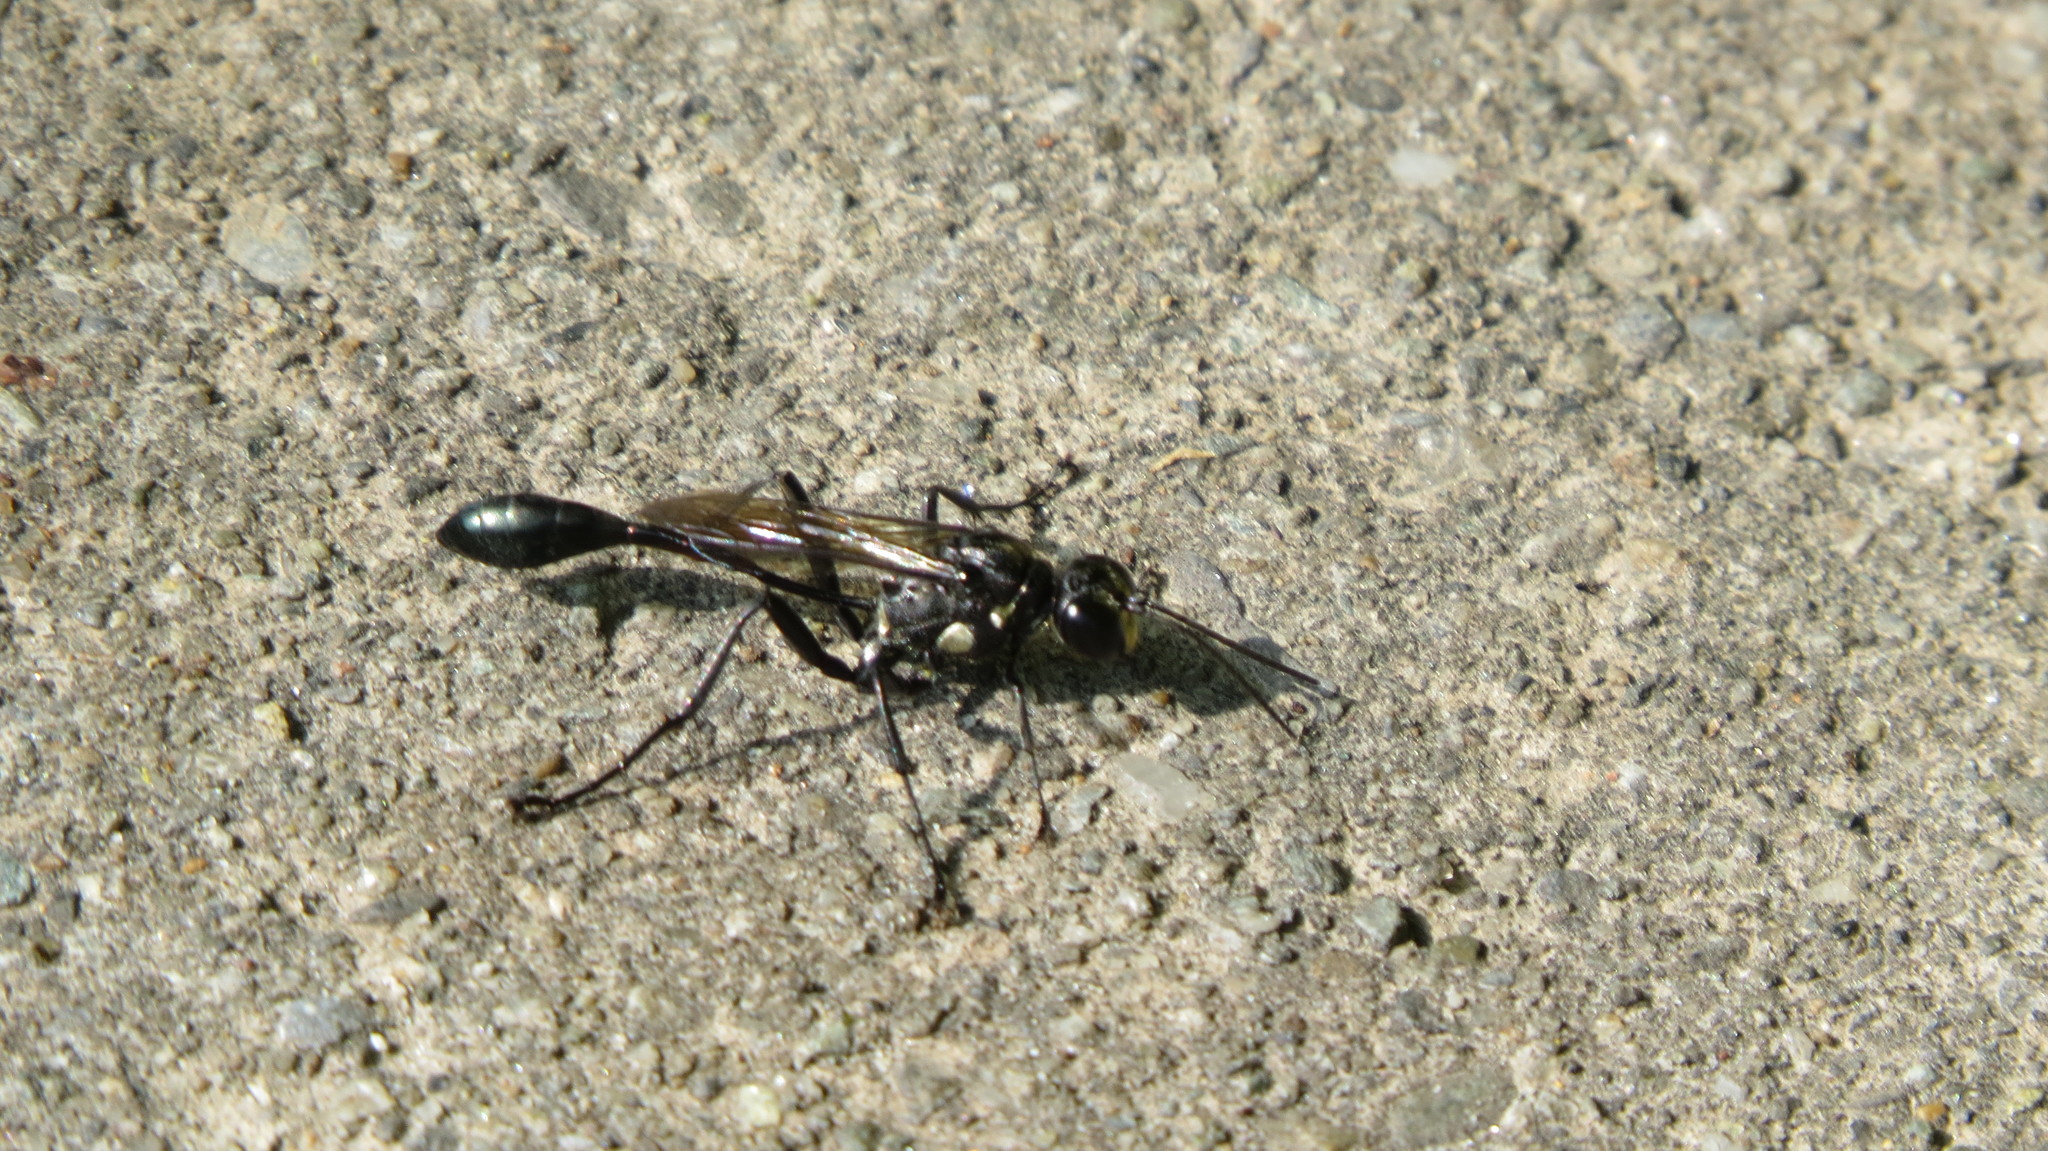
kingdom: Animalia
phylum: Arthropoda
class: Insecta
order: Hymenoptera
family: Sphecidae
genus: Eremnophila
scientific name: Eremnophila aureonotata
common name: Gold-marked thread-waisted wasp
